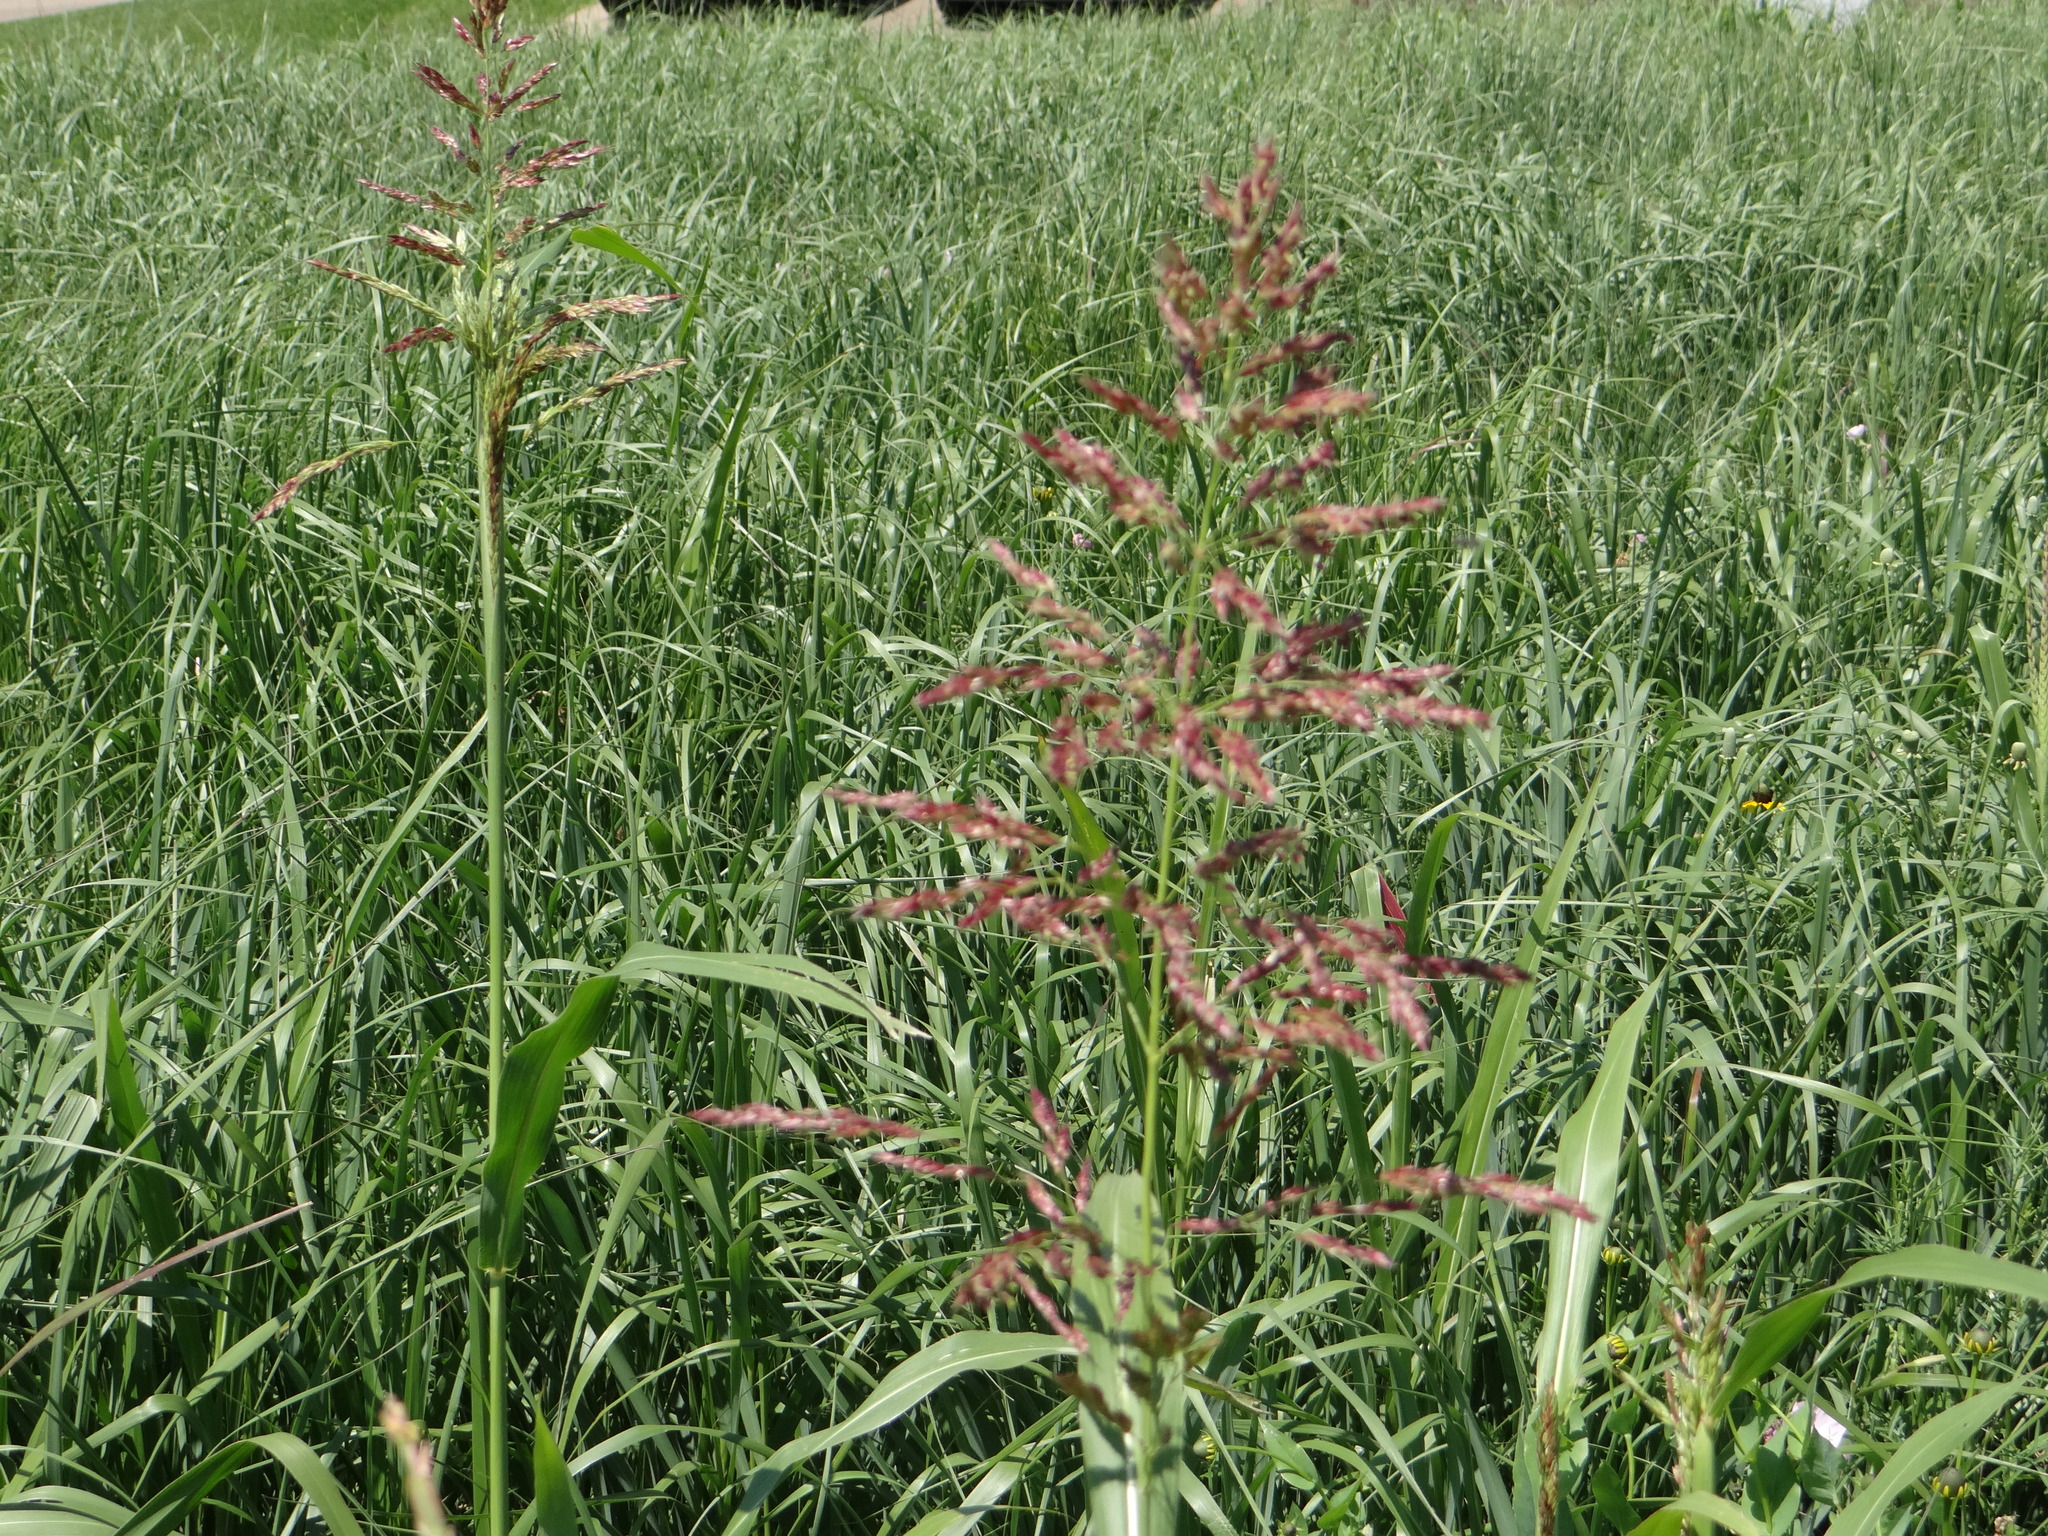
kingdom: Plantae
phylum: Tracheophyta
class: Liliopsida
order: Poales
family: Poaceae
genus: Sorghum
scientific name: Sorghum halepense
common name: Johnson-grass
